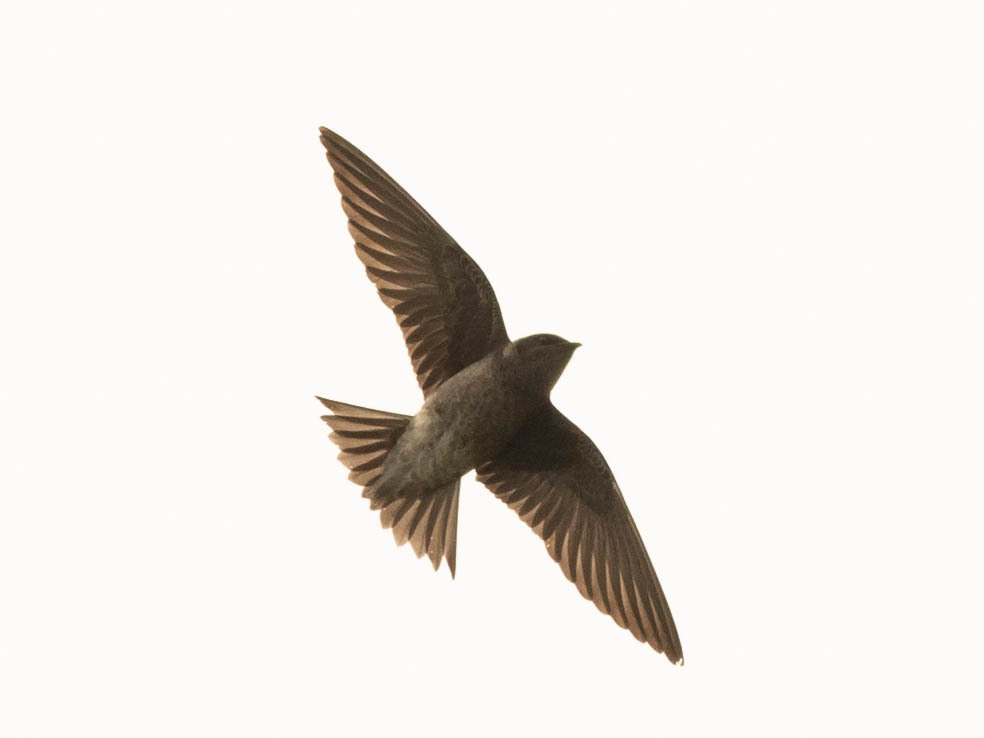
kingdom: Animalia
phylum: Chordata
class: Aves
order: Passeriformes
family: Hirundinidae
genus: Progne
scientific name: Progne subis
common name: Purple martin
